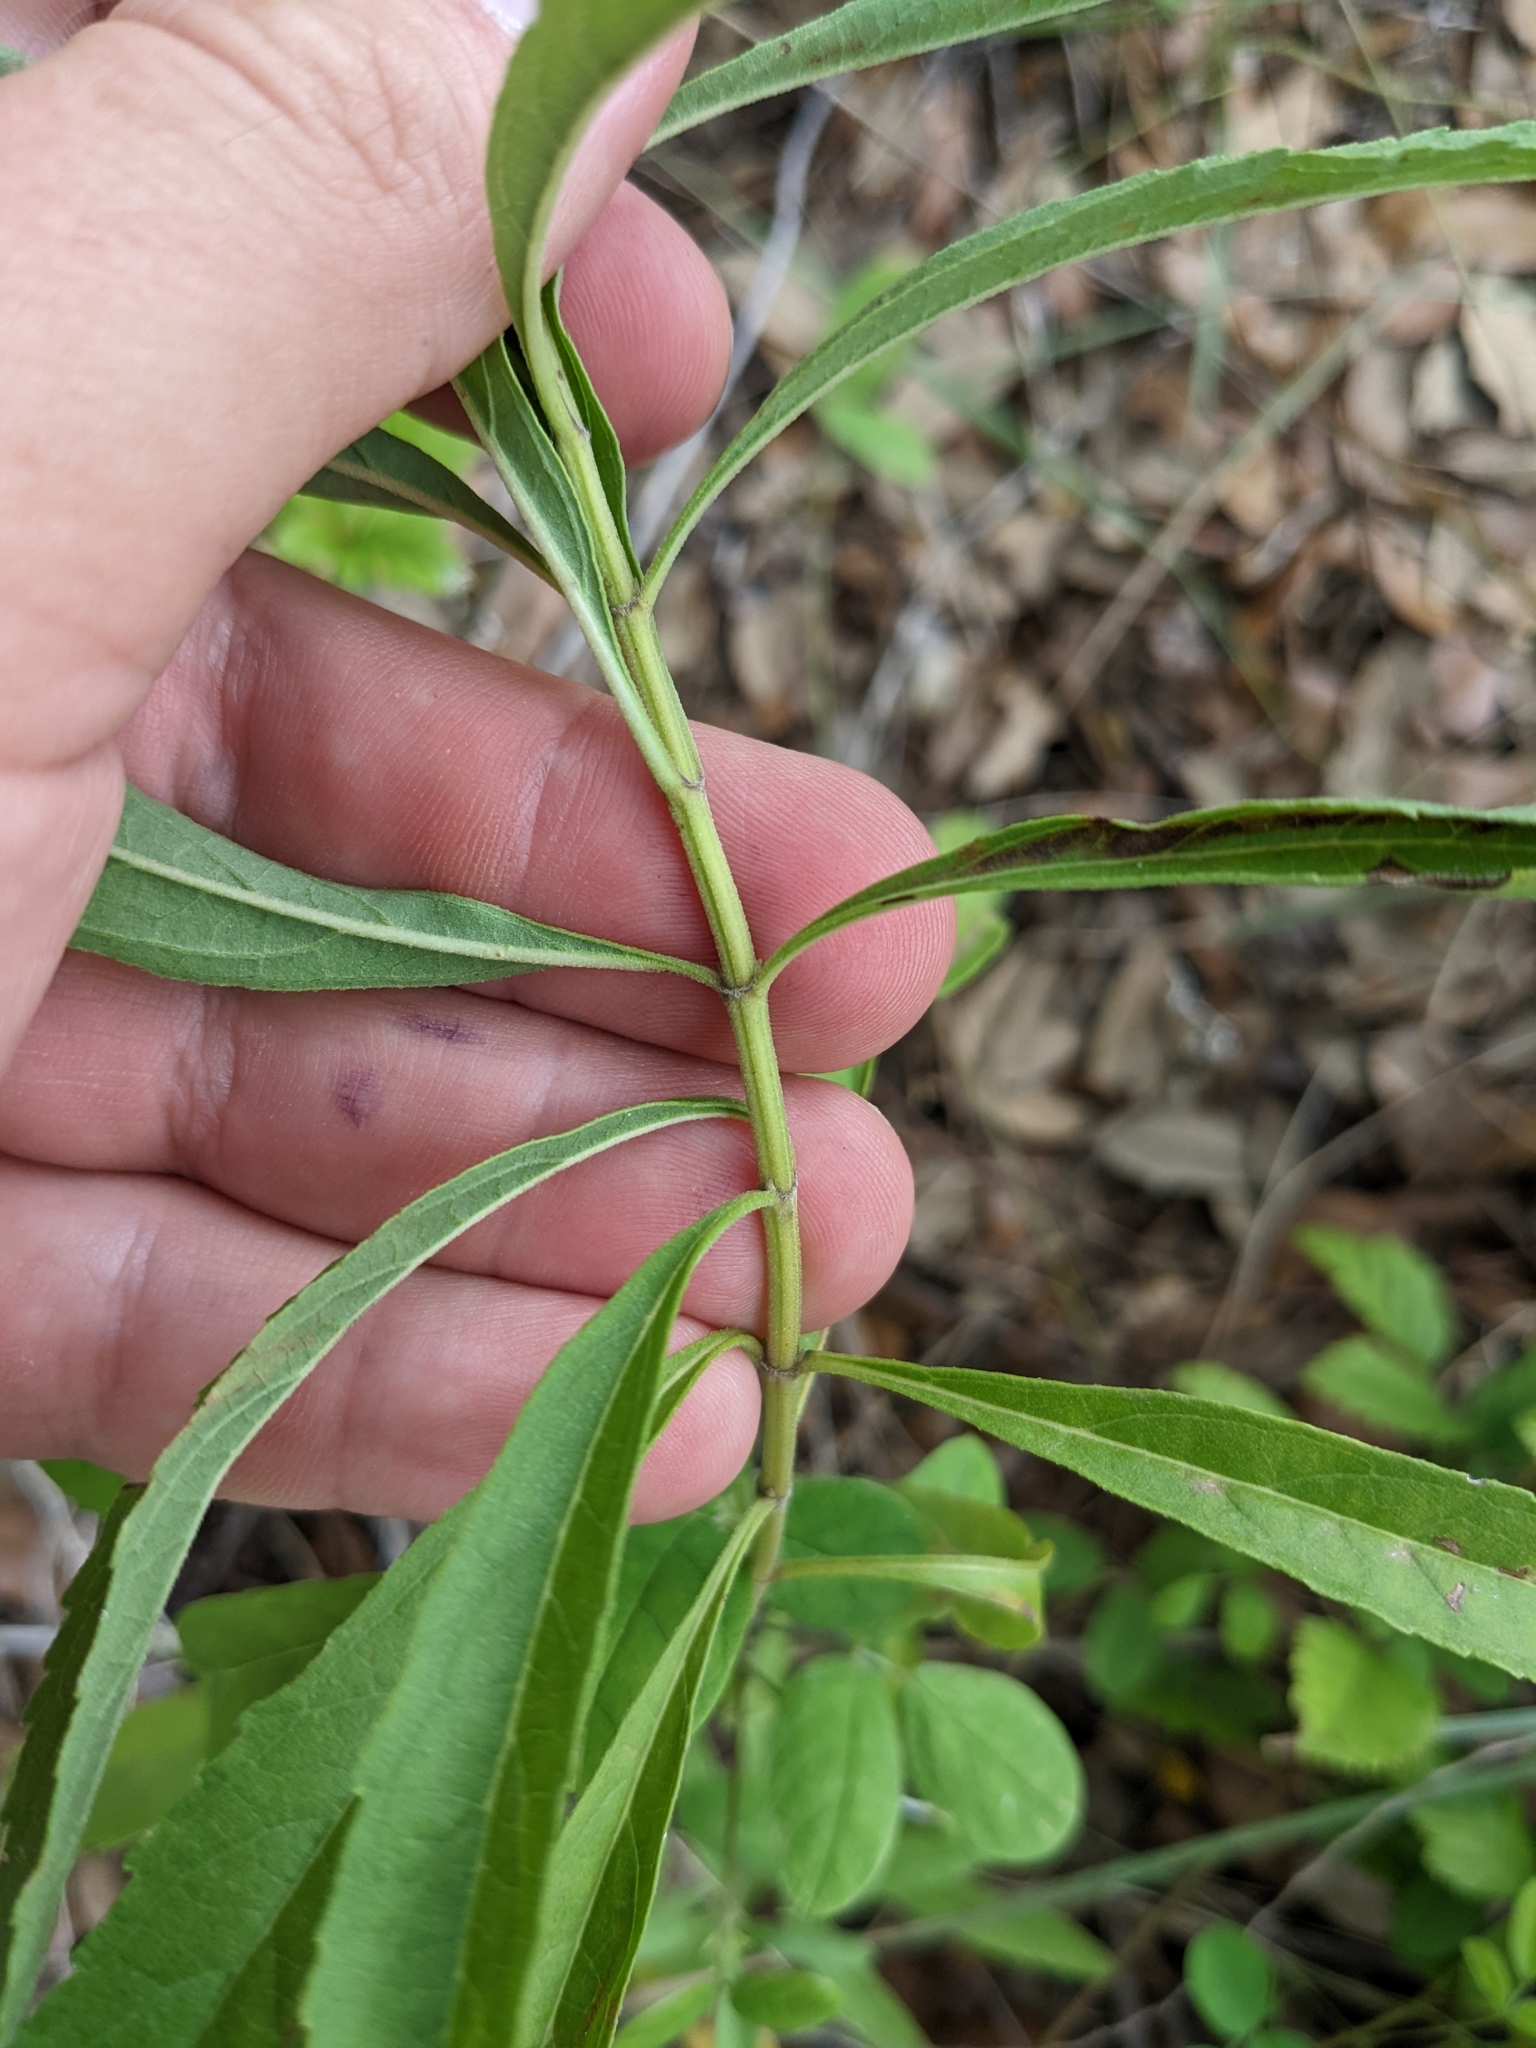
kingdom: Plantae
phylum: Tracheophyta
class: Magnoliopsida
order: Lamiales
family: Lamiaceae
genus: Salvia
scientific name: Salvia azurea
